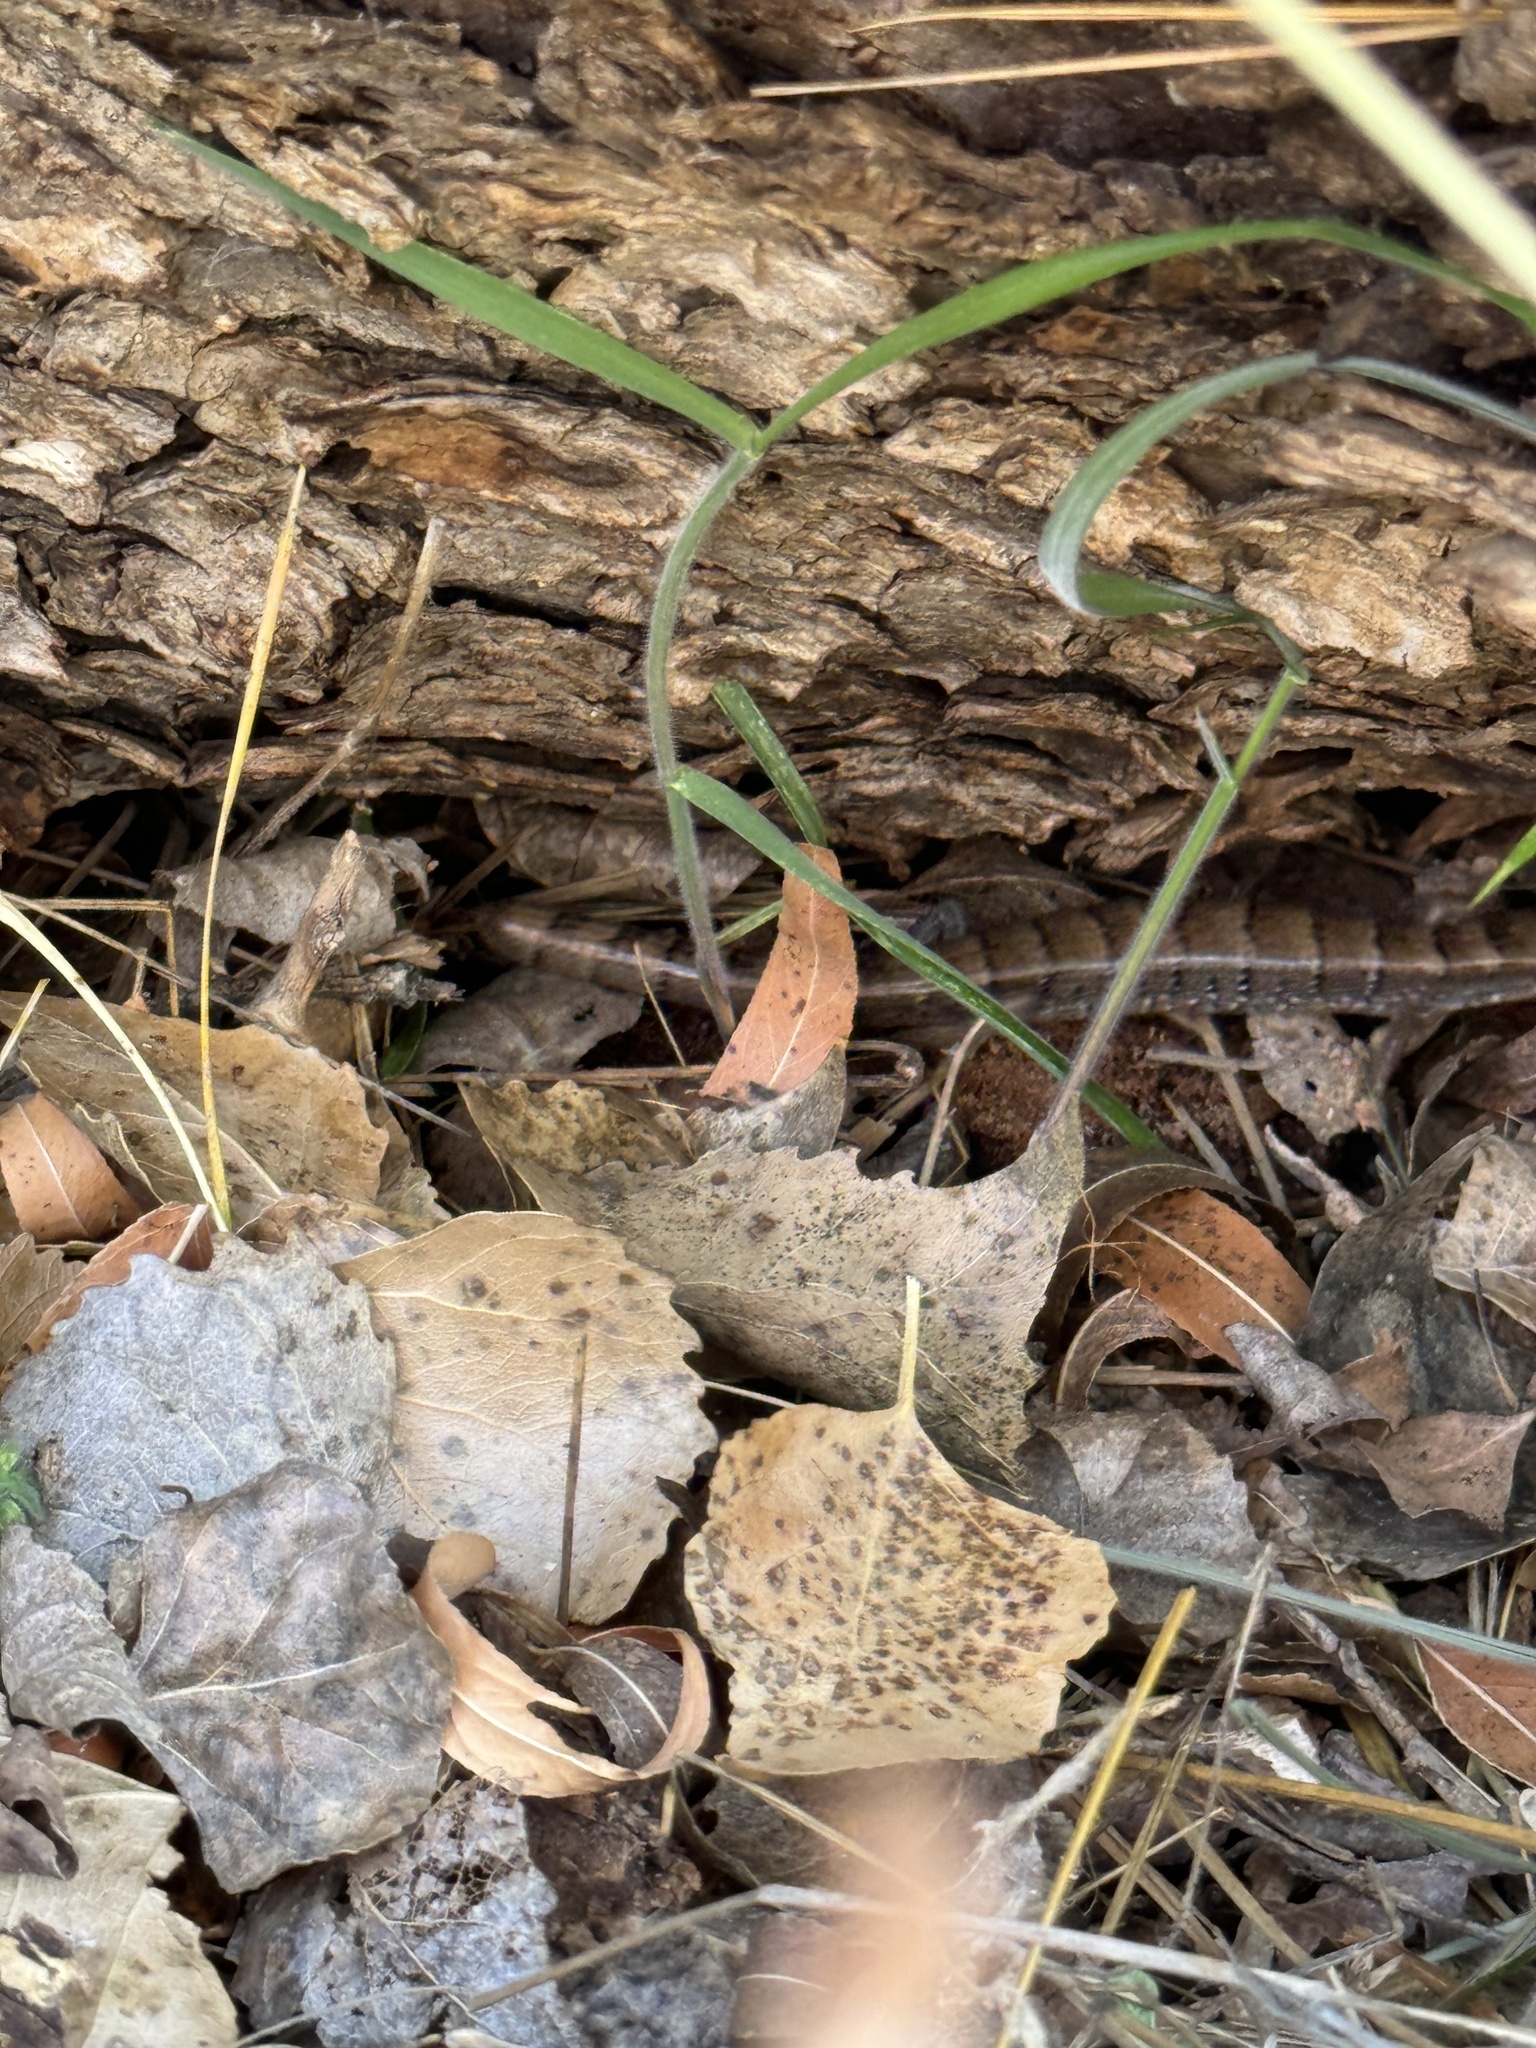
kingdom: Animalia
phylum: Chordata
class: Squamata
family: Anguidae
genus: Elgaria
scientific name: Elgaria kingii
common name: Madrean alligator lizard
